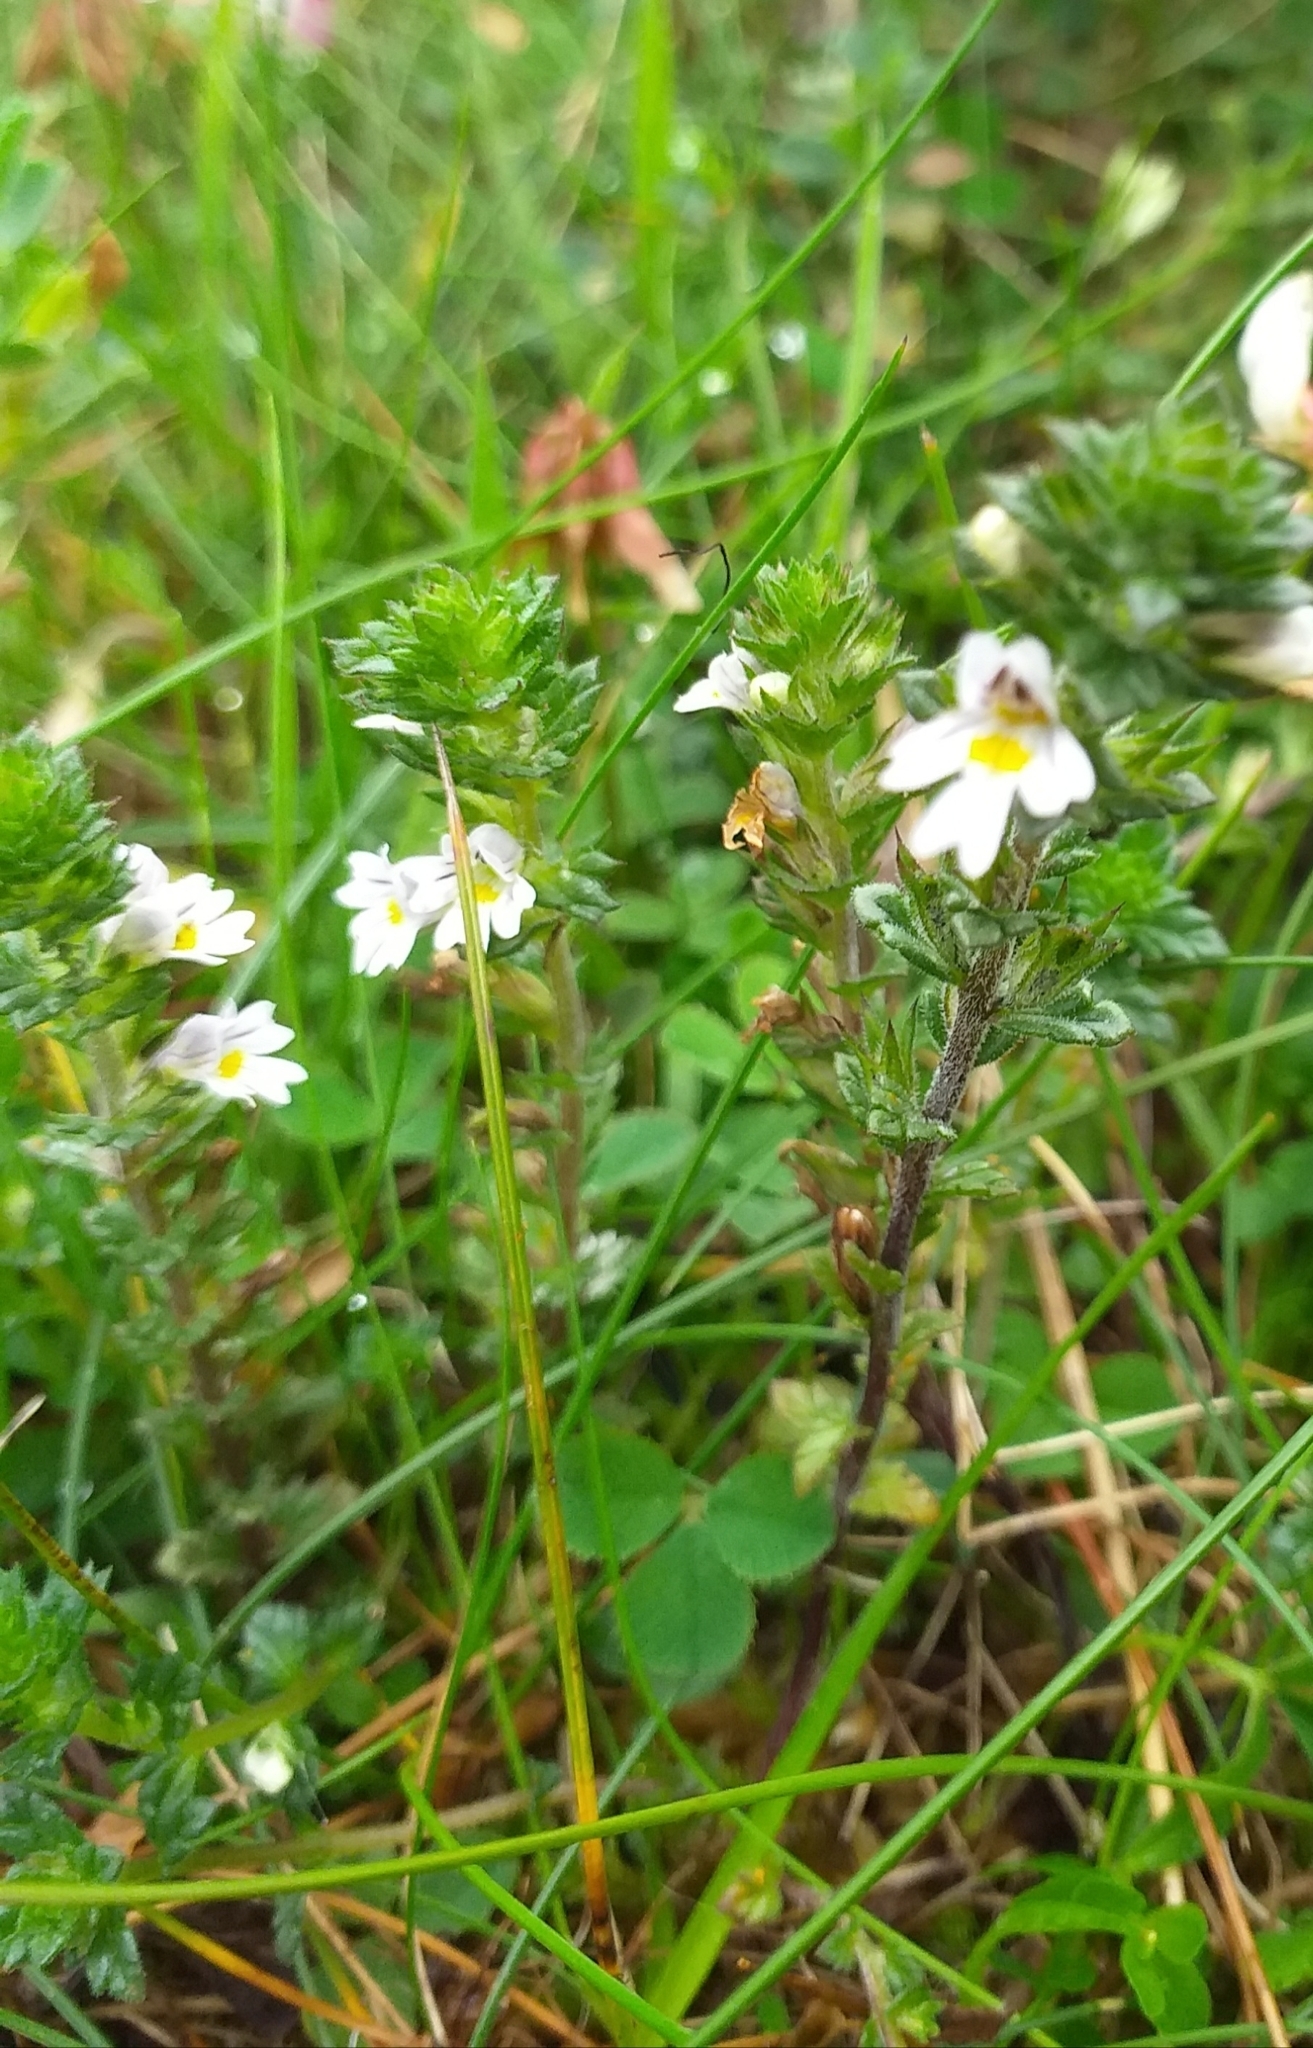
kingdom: Plantae
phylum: Tracheophyta
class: Magnoliopsida
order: Lamiales
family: Orobanchaceae
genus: Euphrasia
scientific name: Euphrasia nemorosa
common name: Common eyebright
